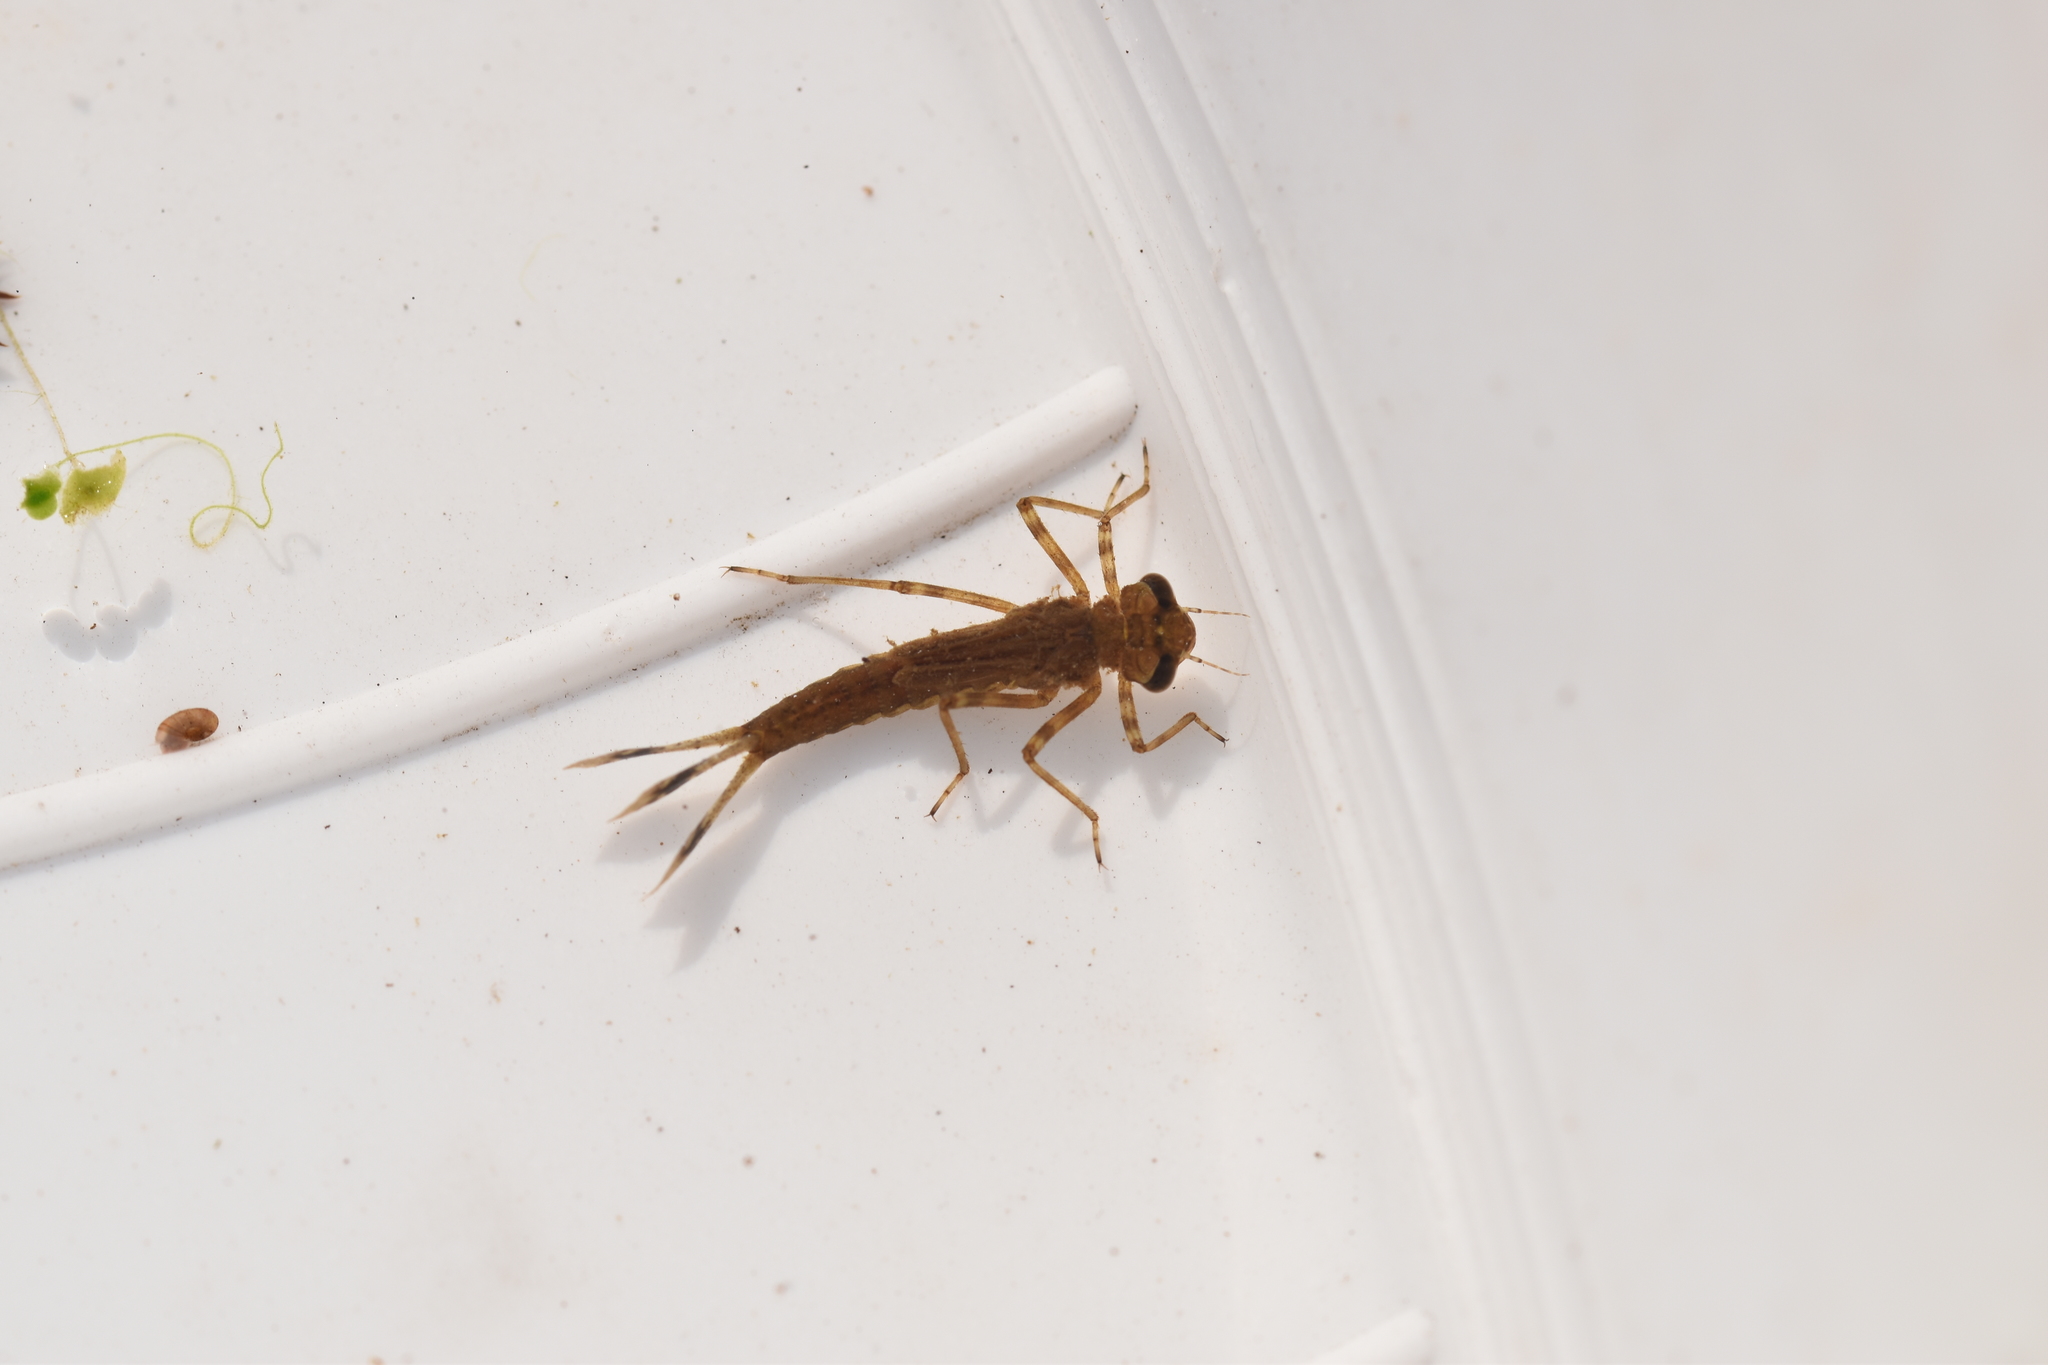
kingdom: Animalia
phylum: Arthropoda
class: Insecta
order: Odonata
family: Coenagrionidae
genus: Pyrrhosoma
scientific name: Pyrrhosoma nymphula
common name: Large red damsel
